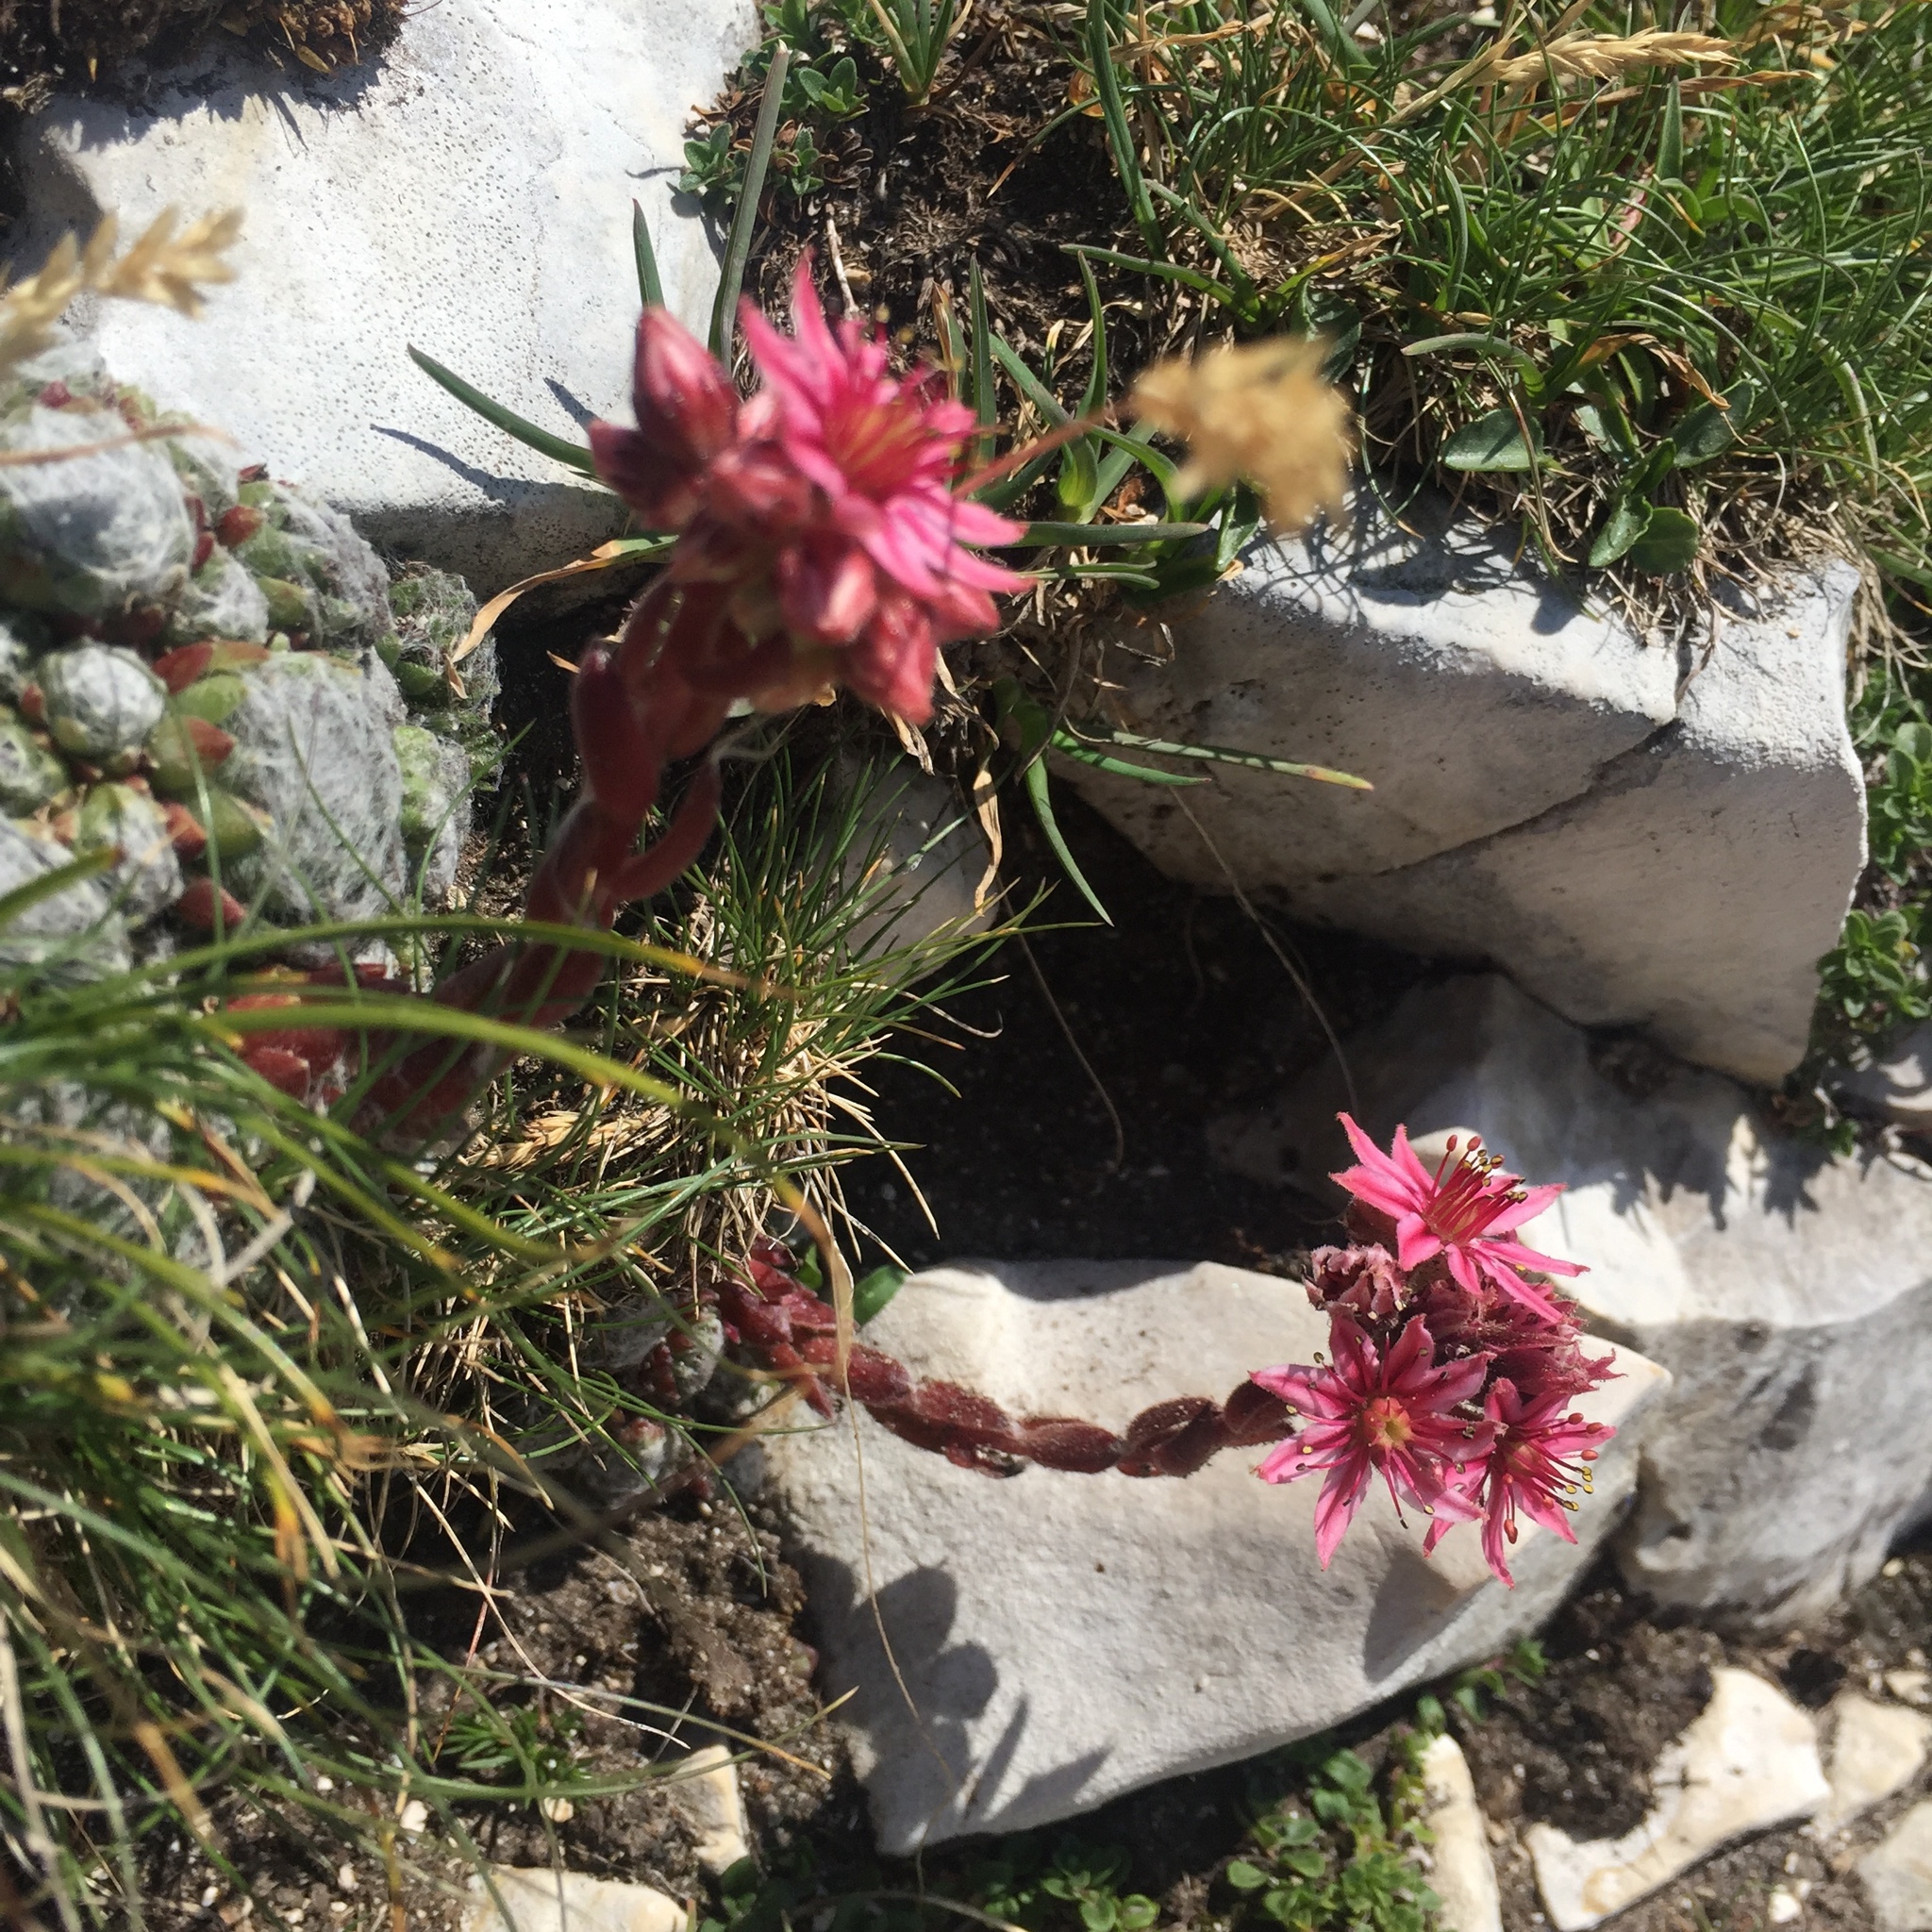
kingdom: Plantae
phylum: Tracheophyta
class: Magnoliopsida
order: Saxifragales
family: Crassulaceae
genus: Sempervivum
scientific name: Sempervivum arachnoideum
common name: Cobweb house-leek
